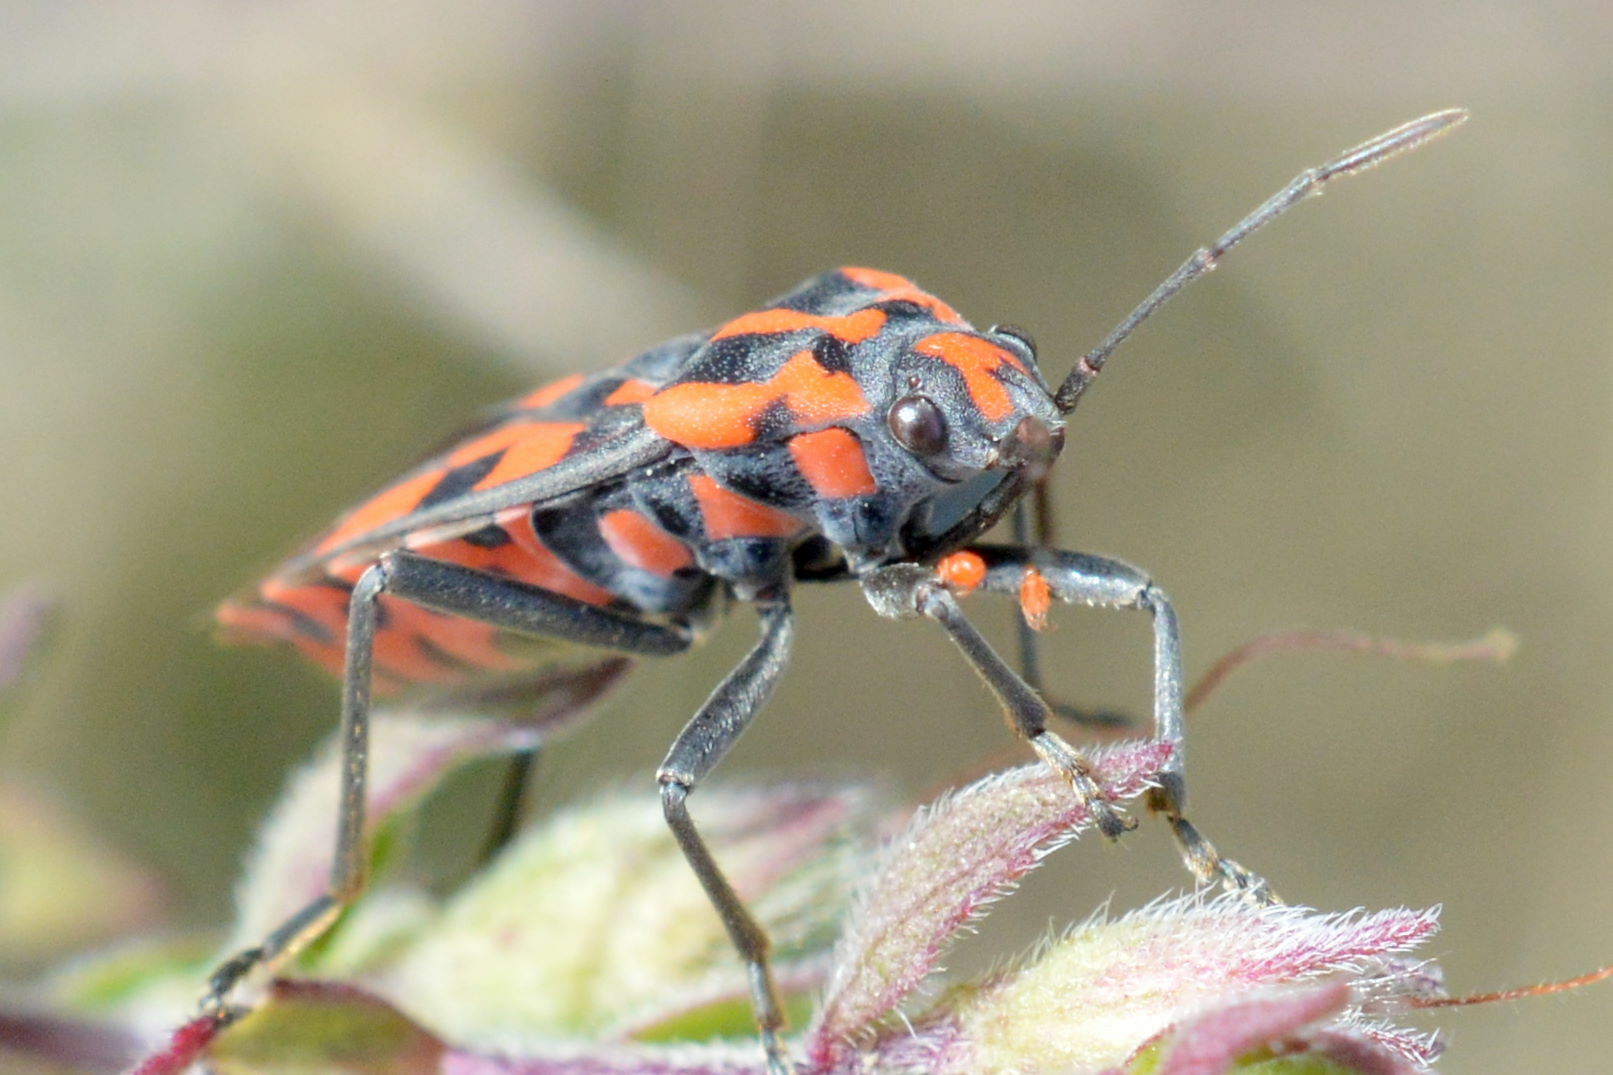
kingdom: Animalia
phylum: Arthropoda
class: Insecta
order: Hemiptera
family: Lygaeidae
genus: Spilostethus
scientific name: Spilostethus saxatilis
